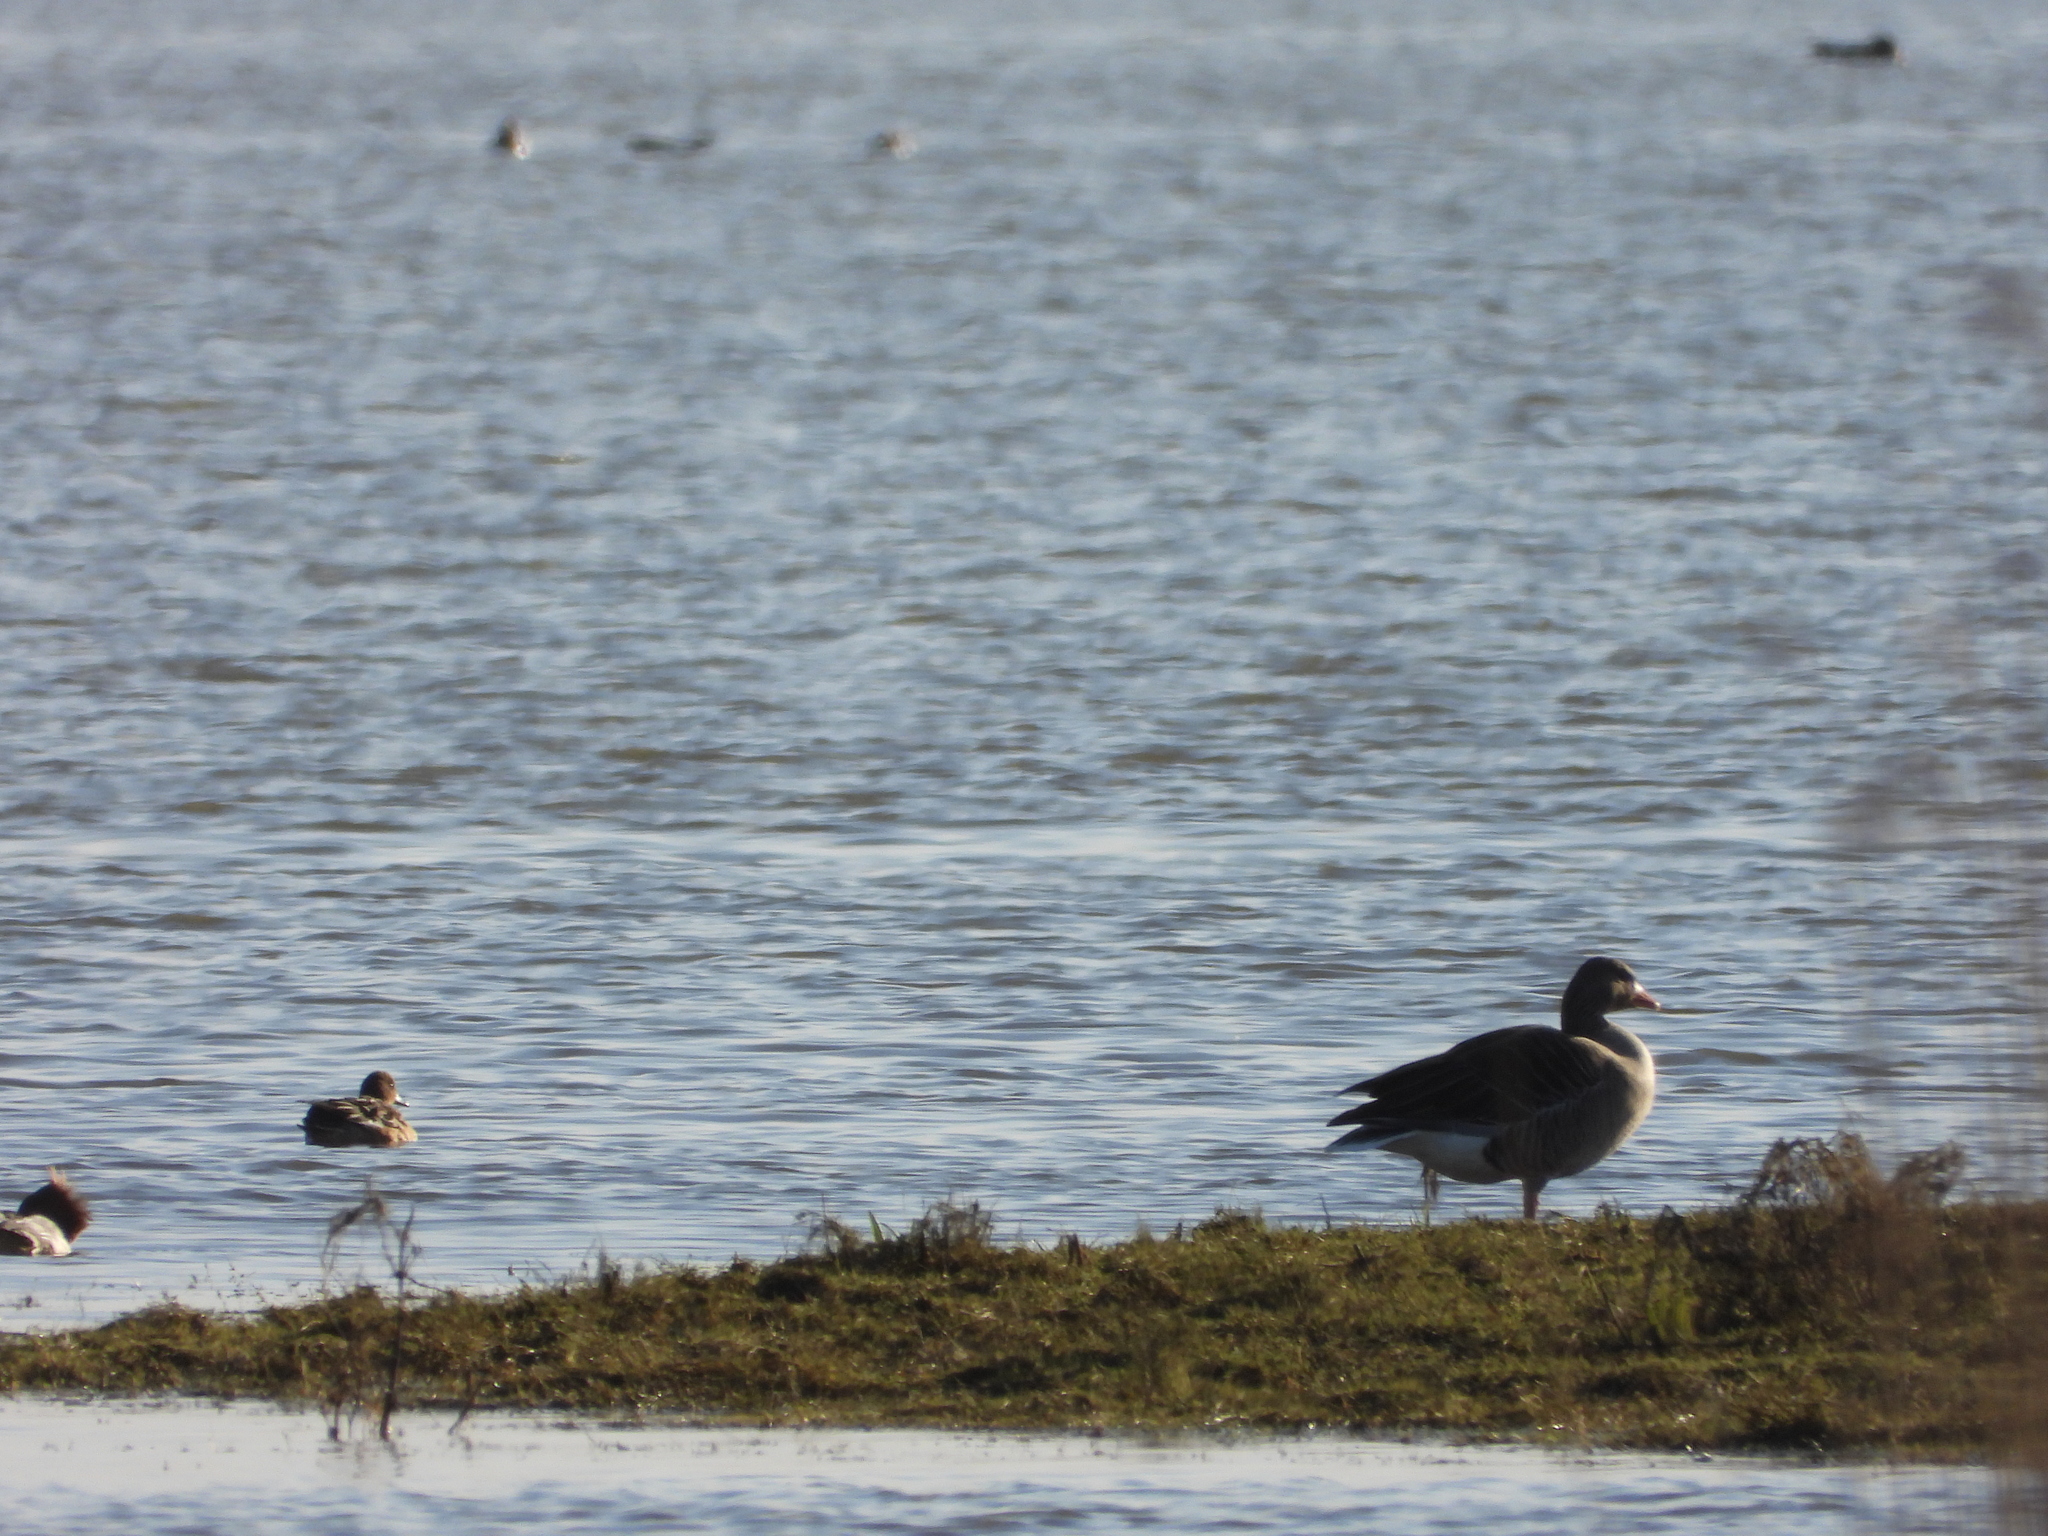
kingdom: Animalia
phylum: Chordata
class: Aves
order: Anseriformes
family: Anatidae
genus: Anser
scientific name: Anser anser
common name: Greylag goose
